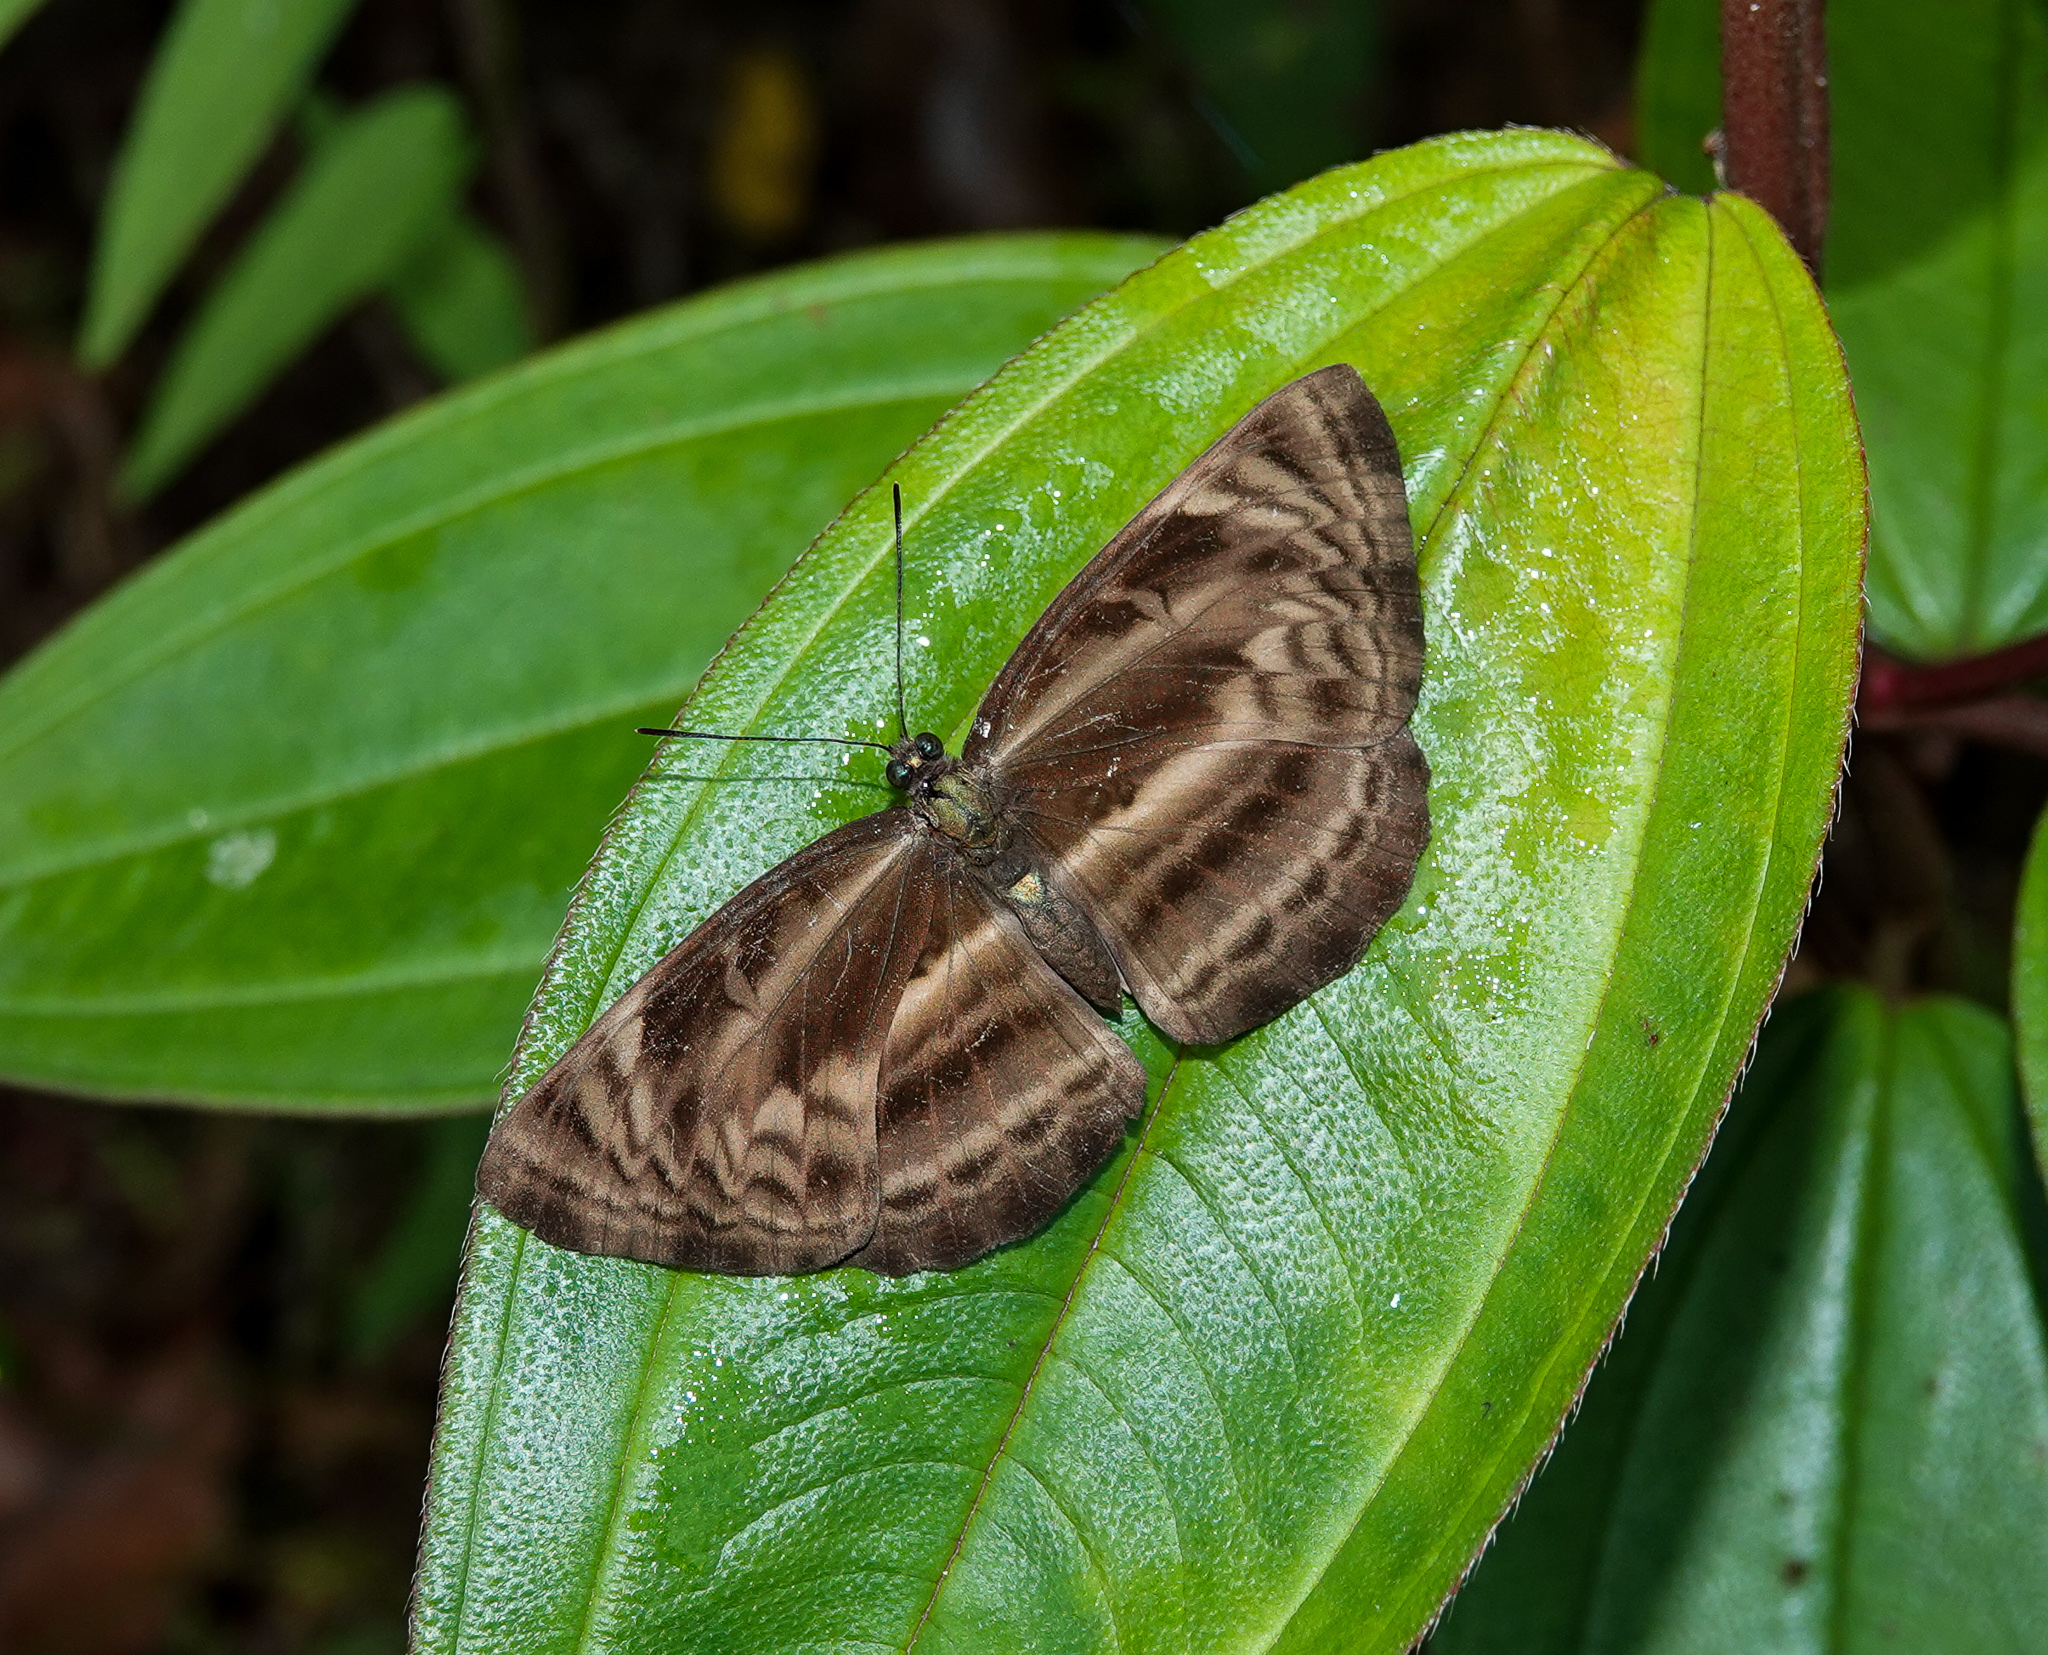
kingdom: Animalia
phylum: Arthropoda
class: Insecta
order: Lepidoptera
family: Nymphalidae
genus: Neptis
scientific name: Neptis harita
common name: Chocolate sailer
